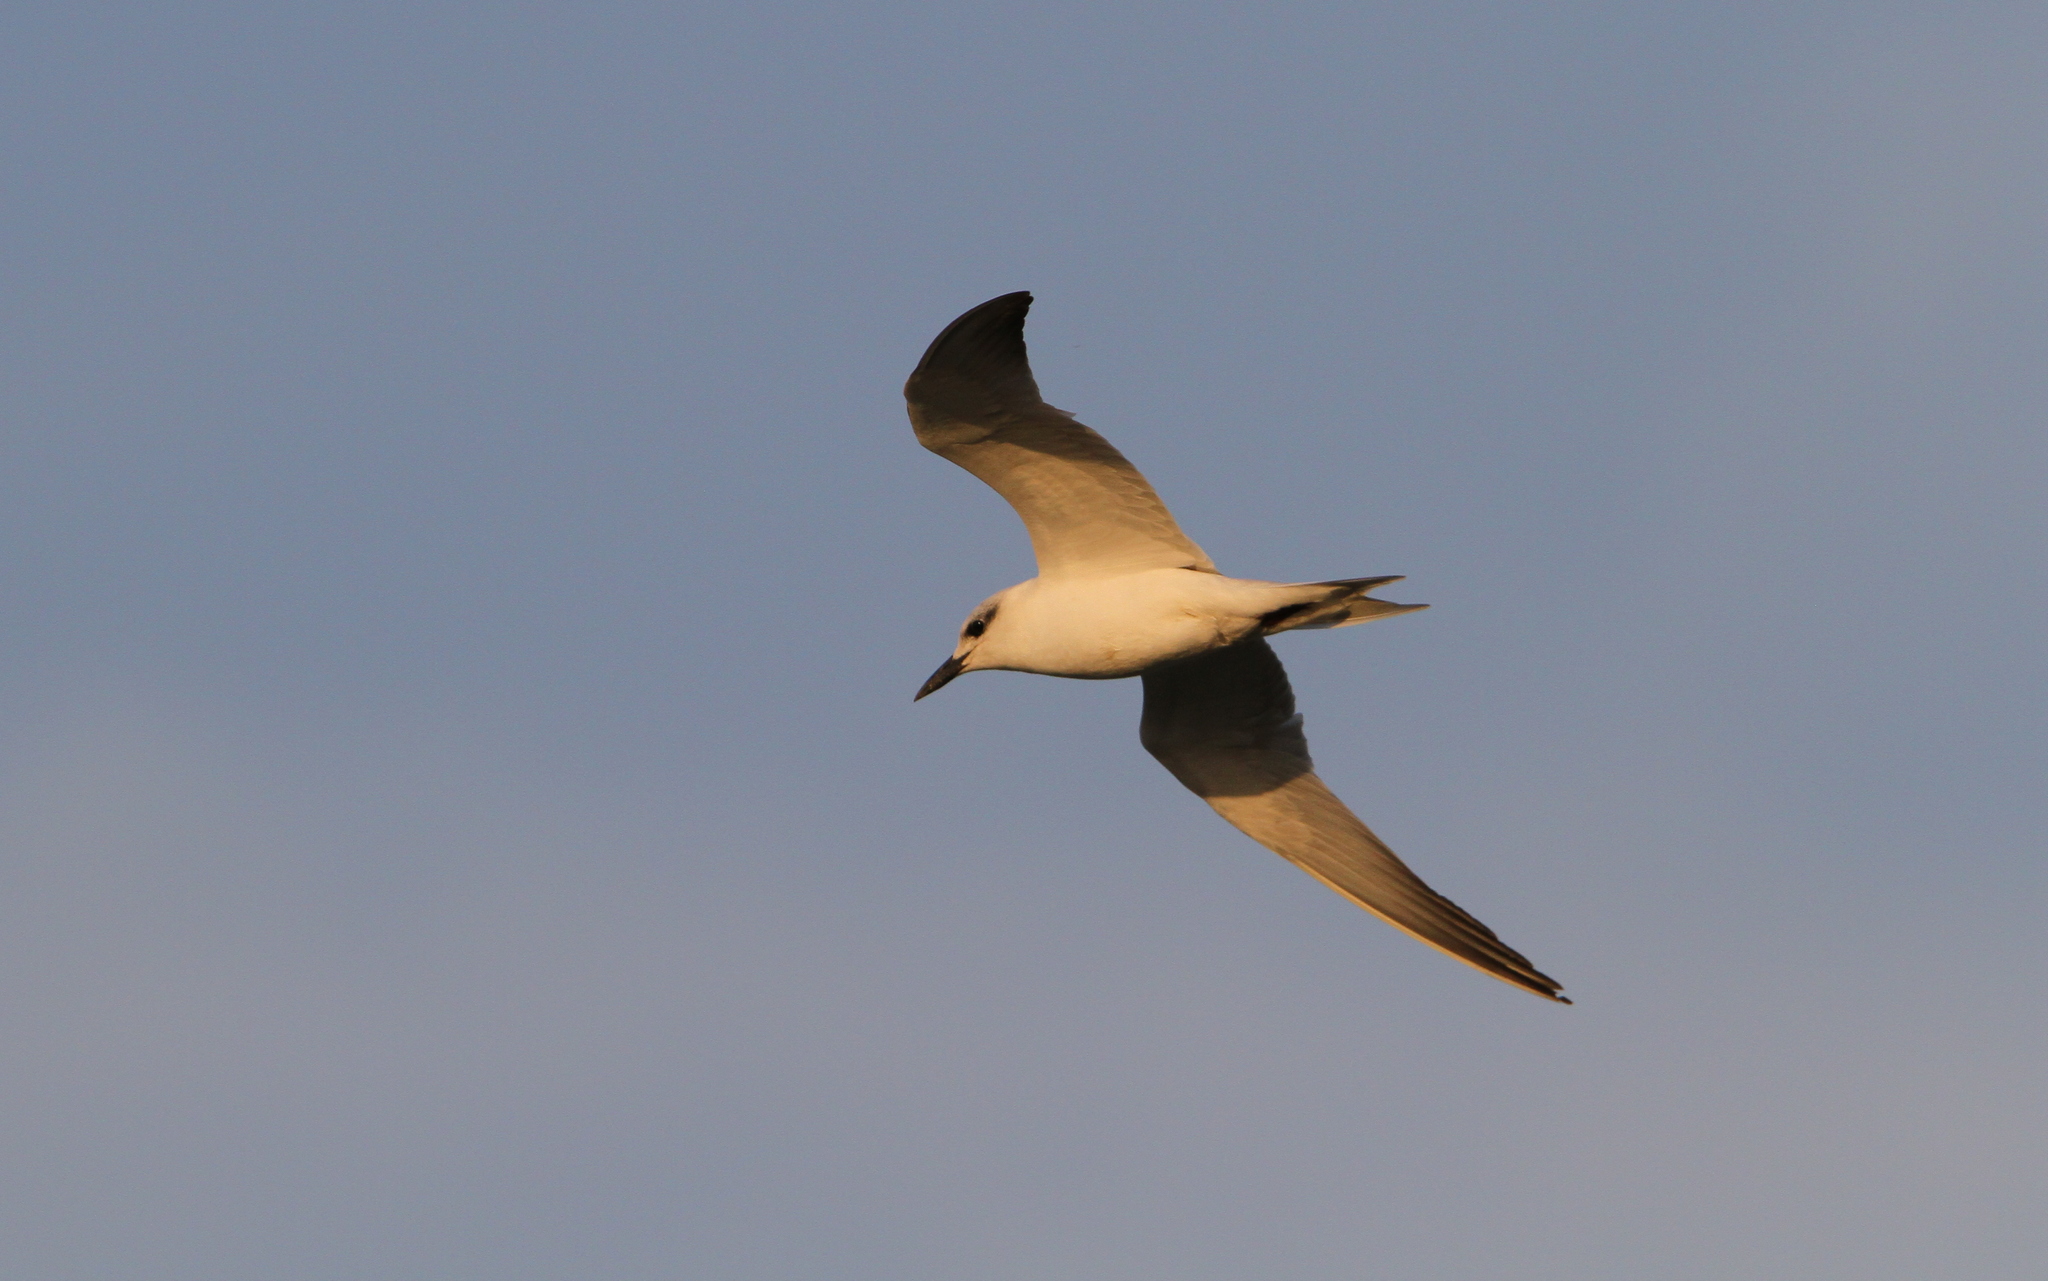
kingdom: Animalia
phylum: Chordata
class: Aves
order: Charadriiformes
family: Laridae
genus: Gelochelidon
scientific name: Gelochelidon nilotica
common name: Gull-billed tern
